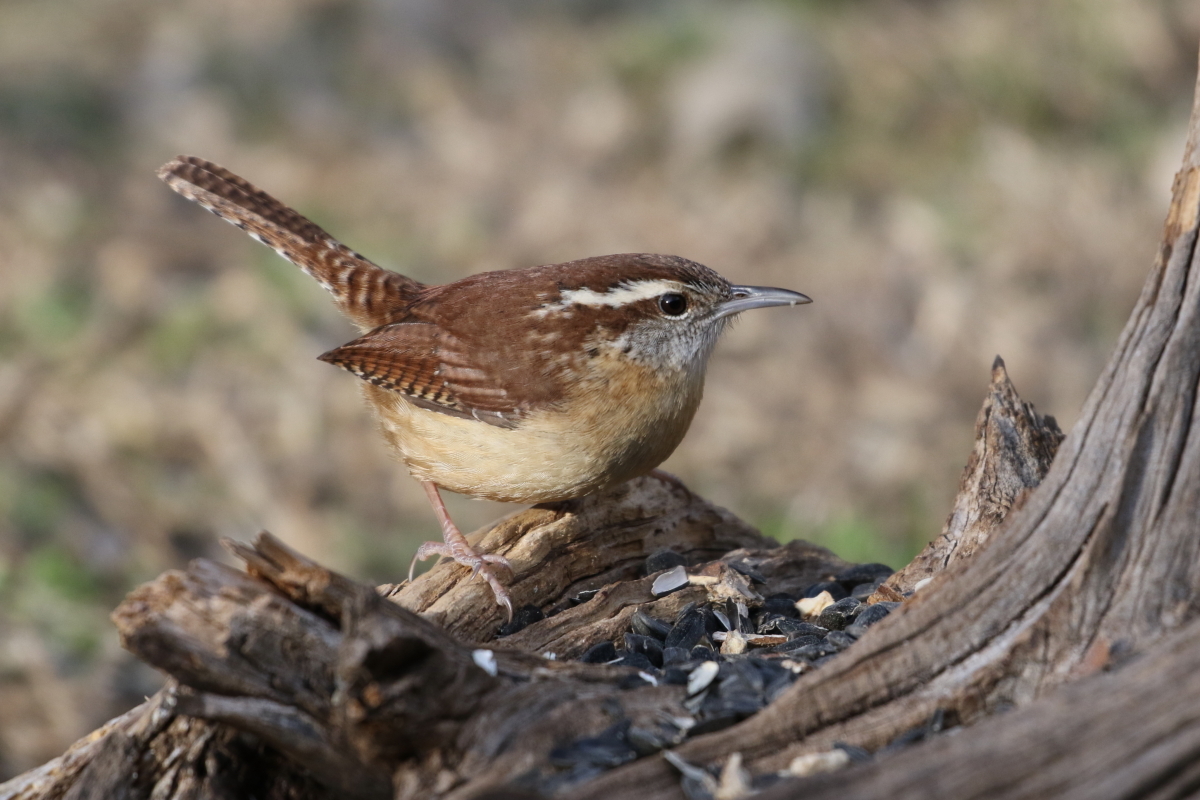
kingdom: Animalia
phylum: Chordata
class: Aves
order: Passeriformes
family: Troglodytidae
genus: Thryothorus
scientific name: Thryothorus ludovicianus
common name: Carolina wren
